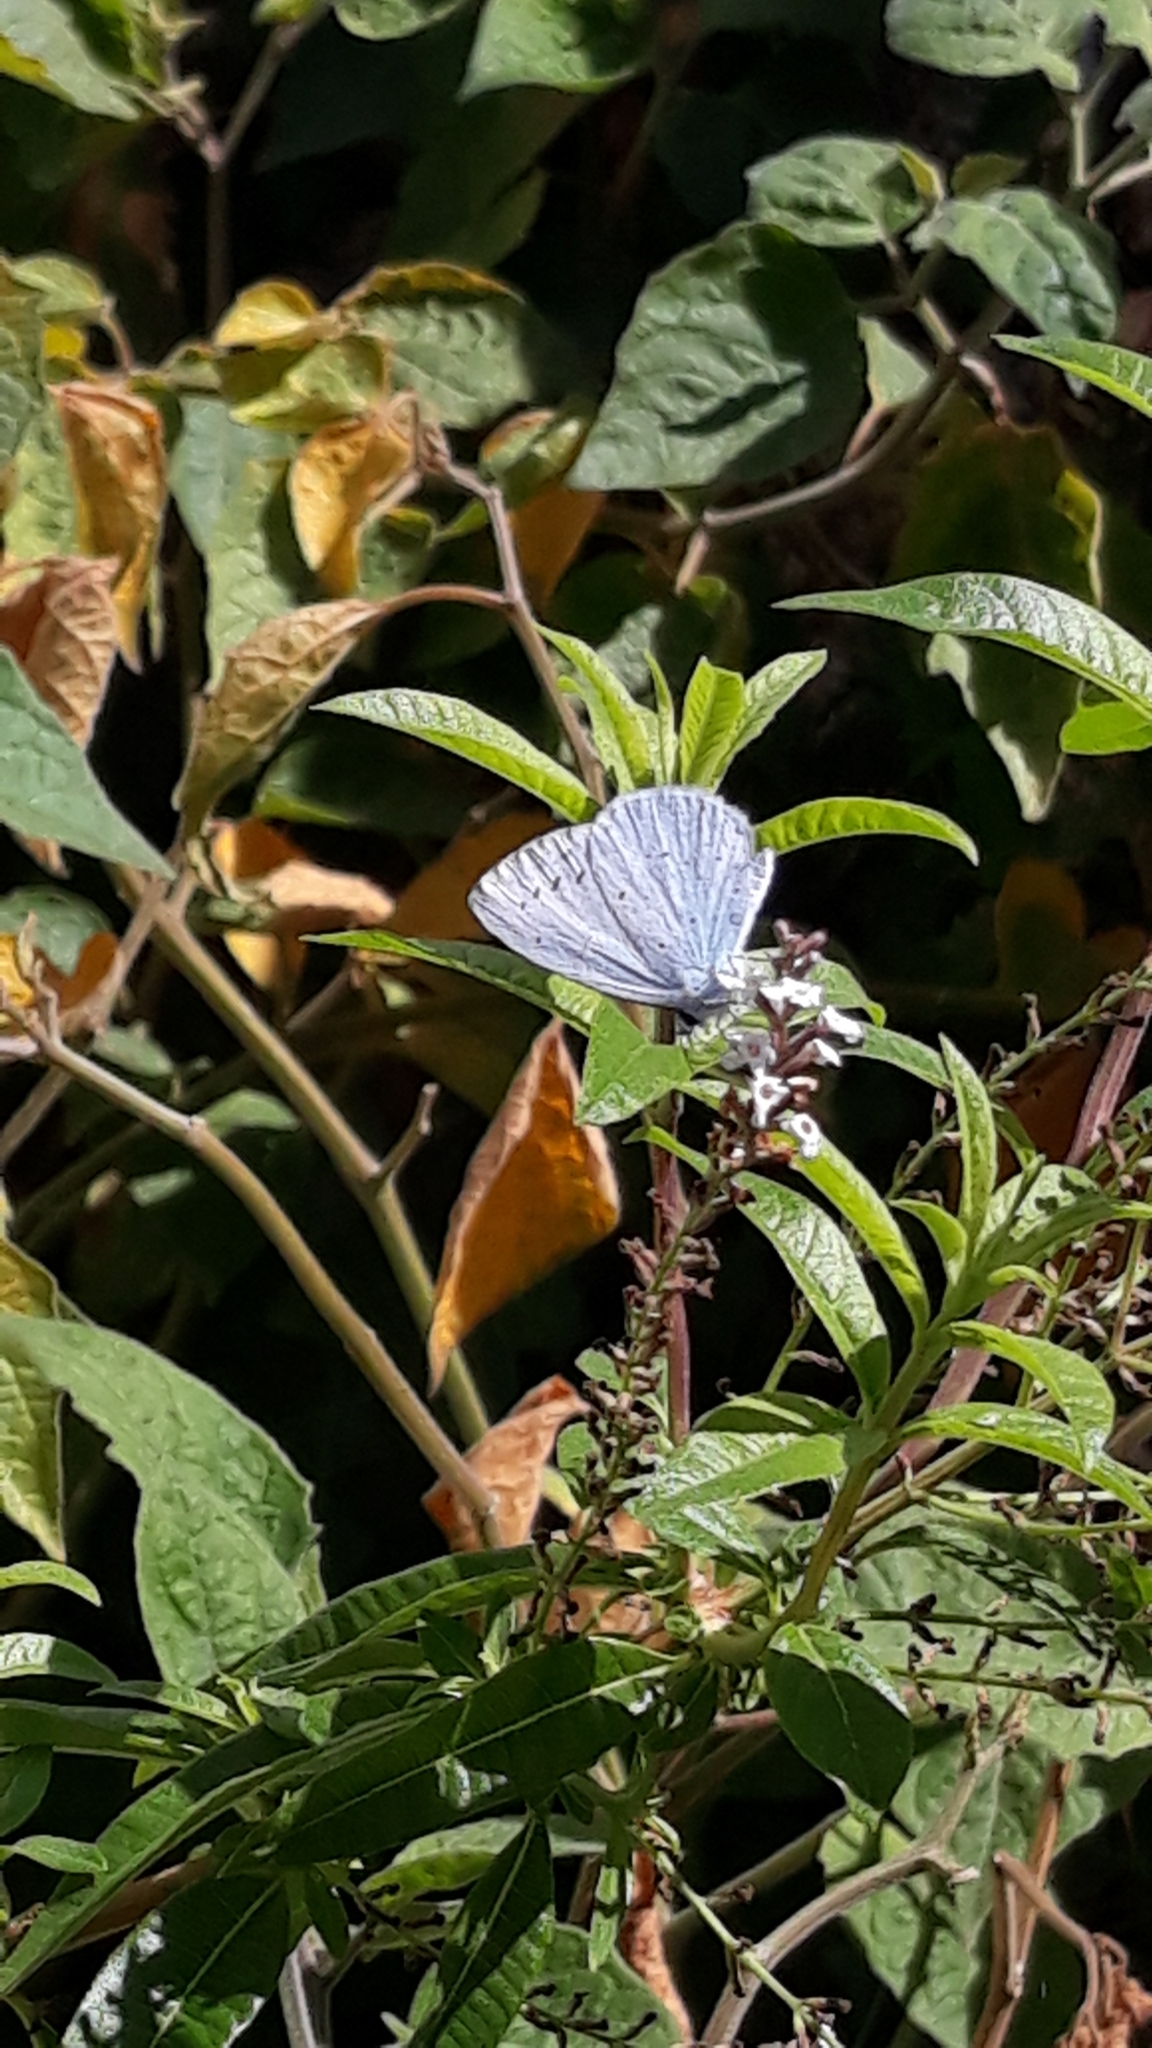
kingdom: Animalia
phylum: Arthropoda
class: Insecta
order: Lepidoptera
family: Lycaenidae
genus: Celastrina
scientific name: Celastrina argiolus
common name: Holly blue
